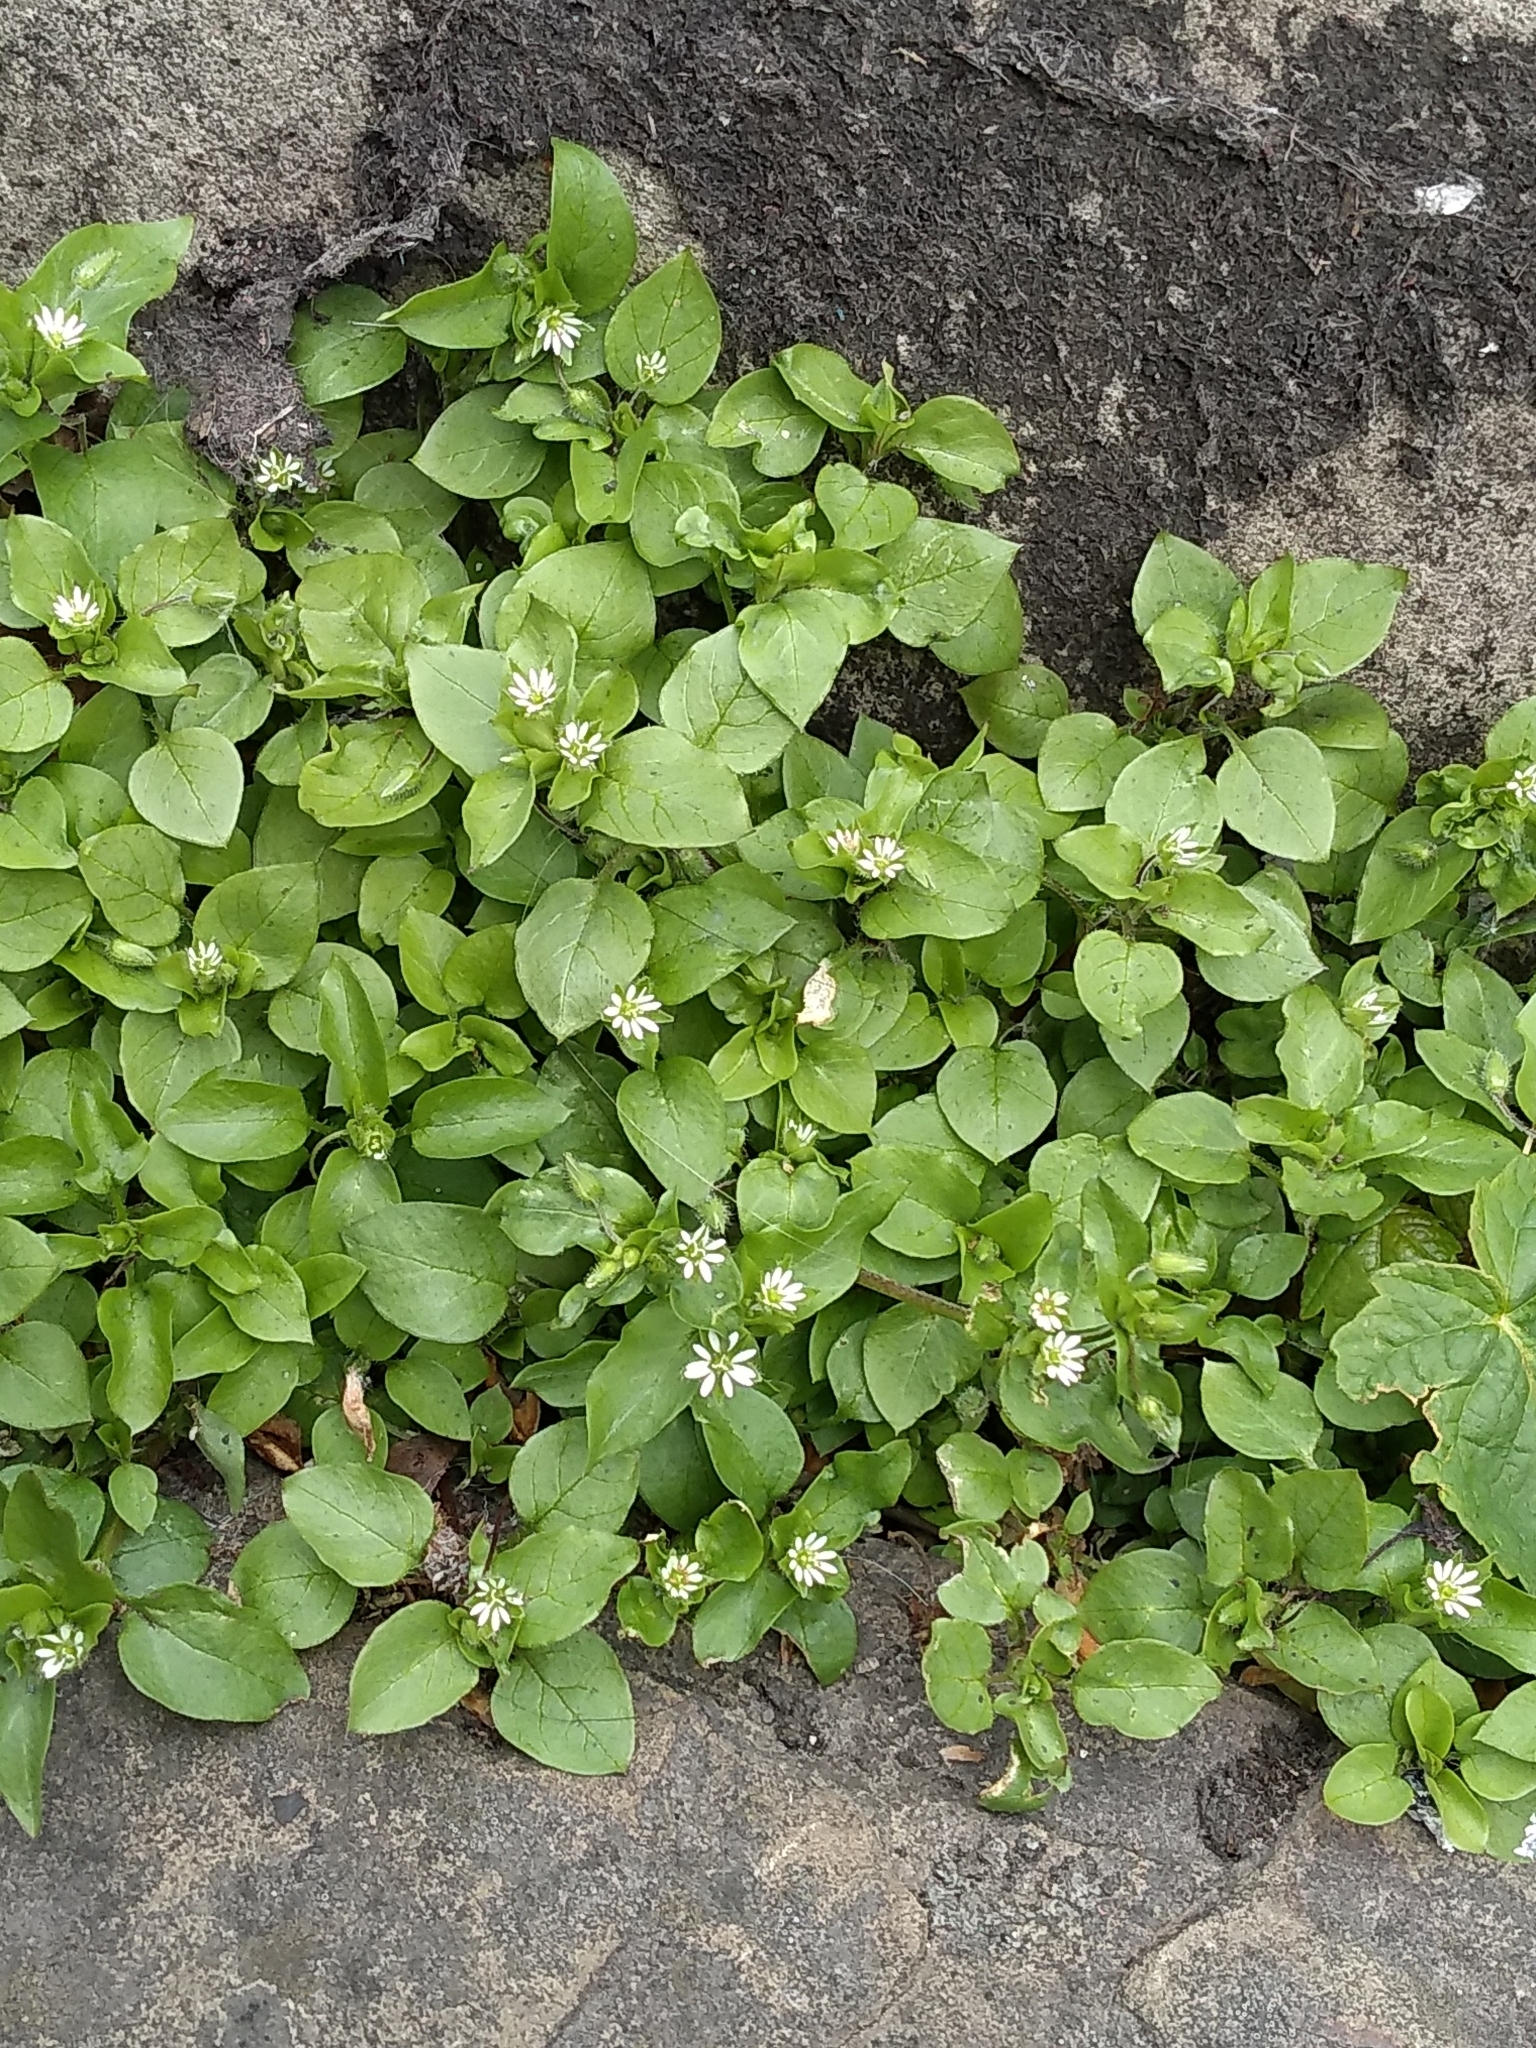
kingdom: Plantae
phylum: Tracheophyta
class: Magnoliopsida
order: Caryophyllales
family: Caryophyllaceae
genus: Stellaria
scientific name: Stellaria media
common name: Common chickweed
